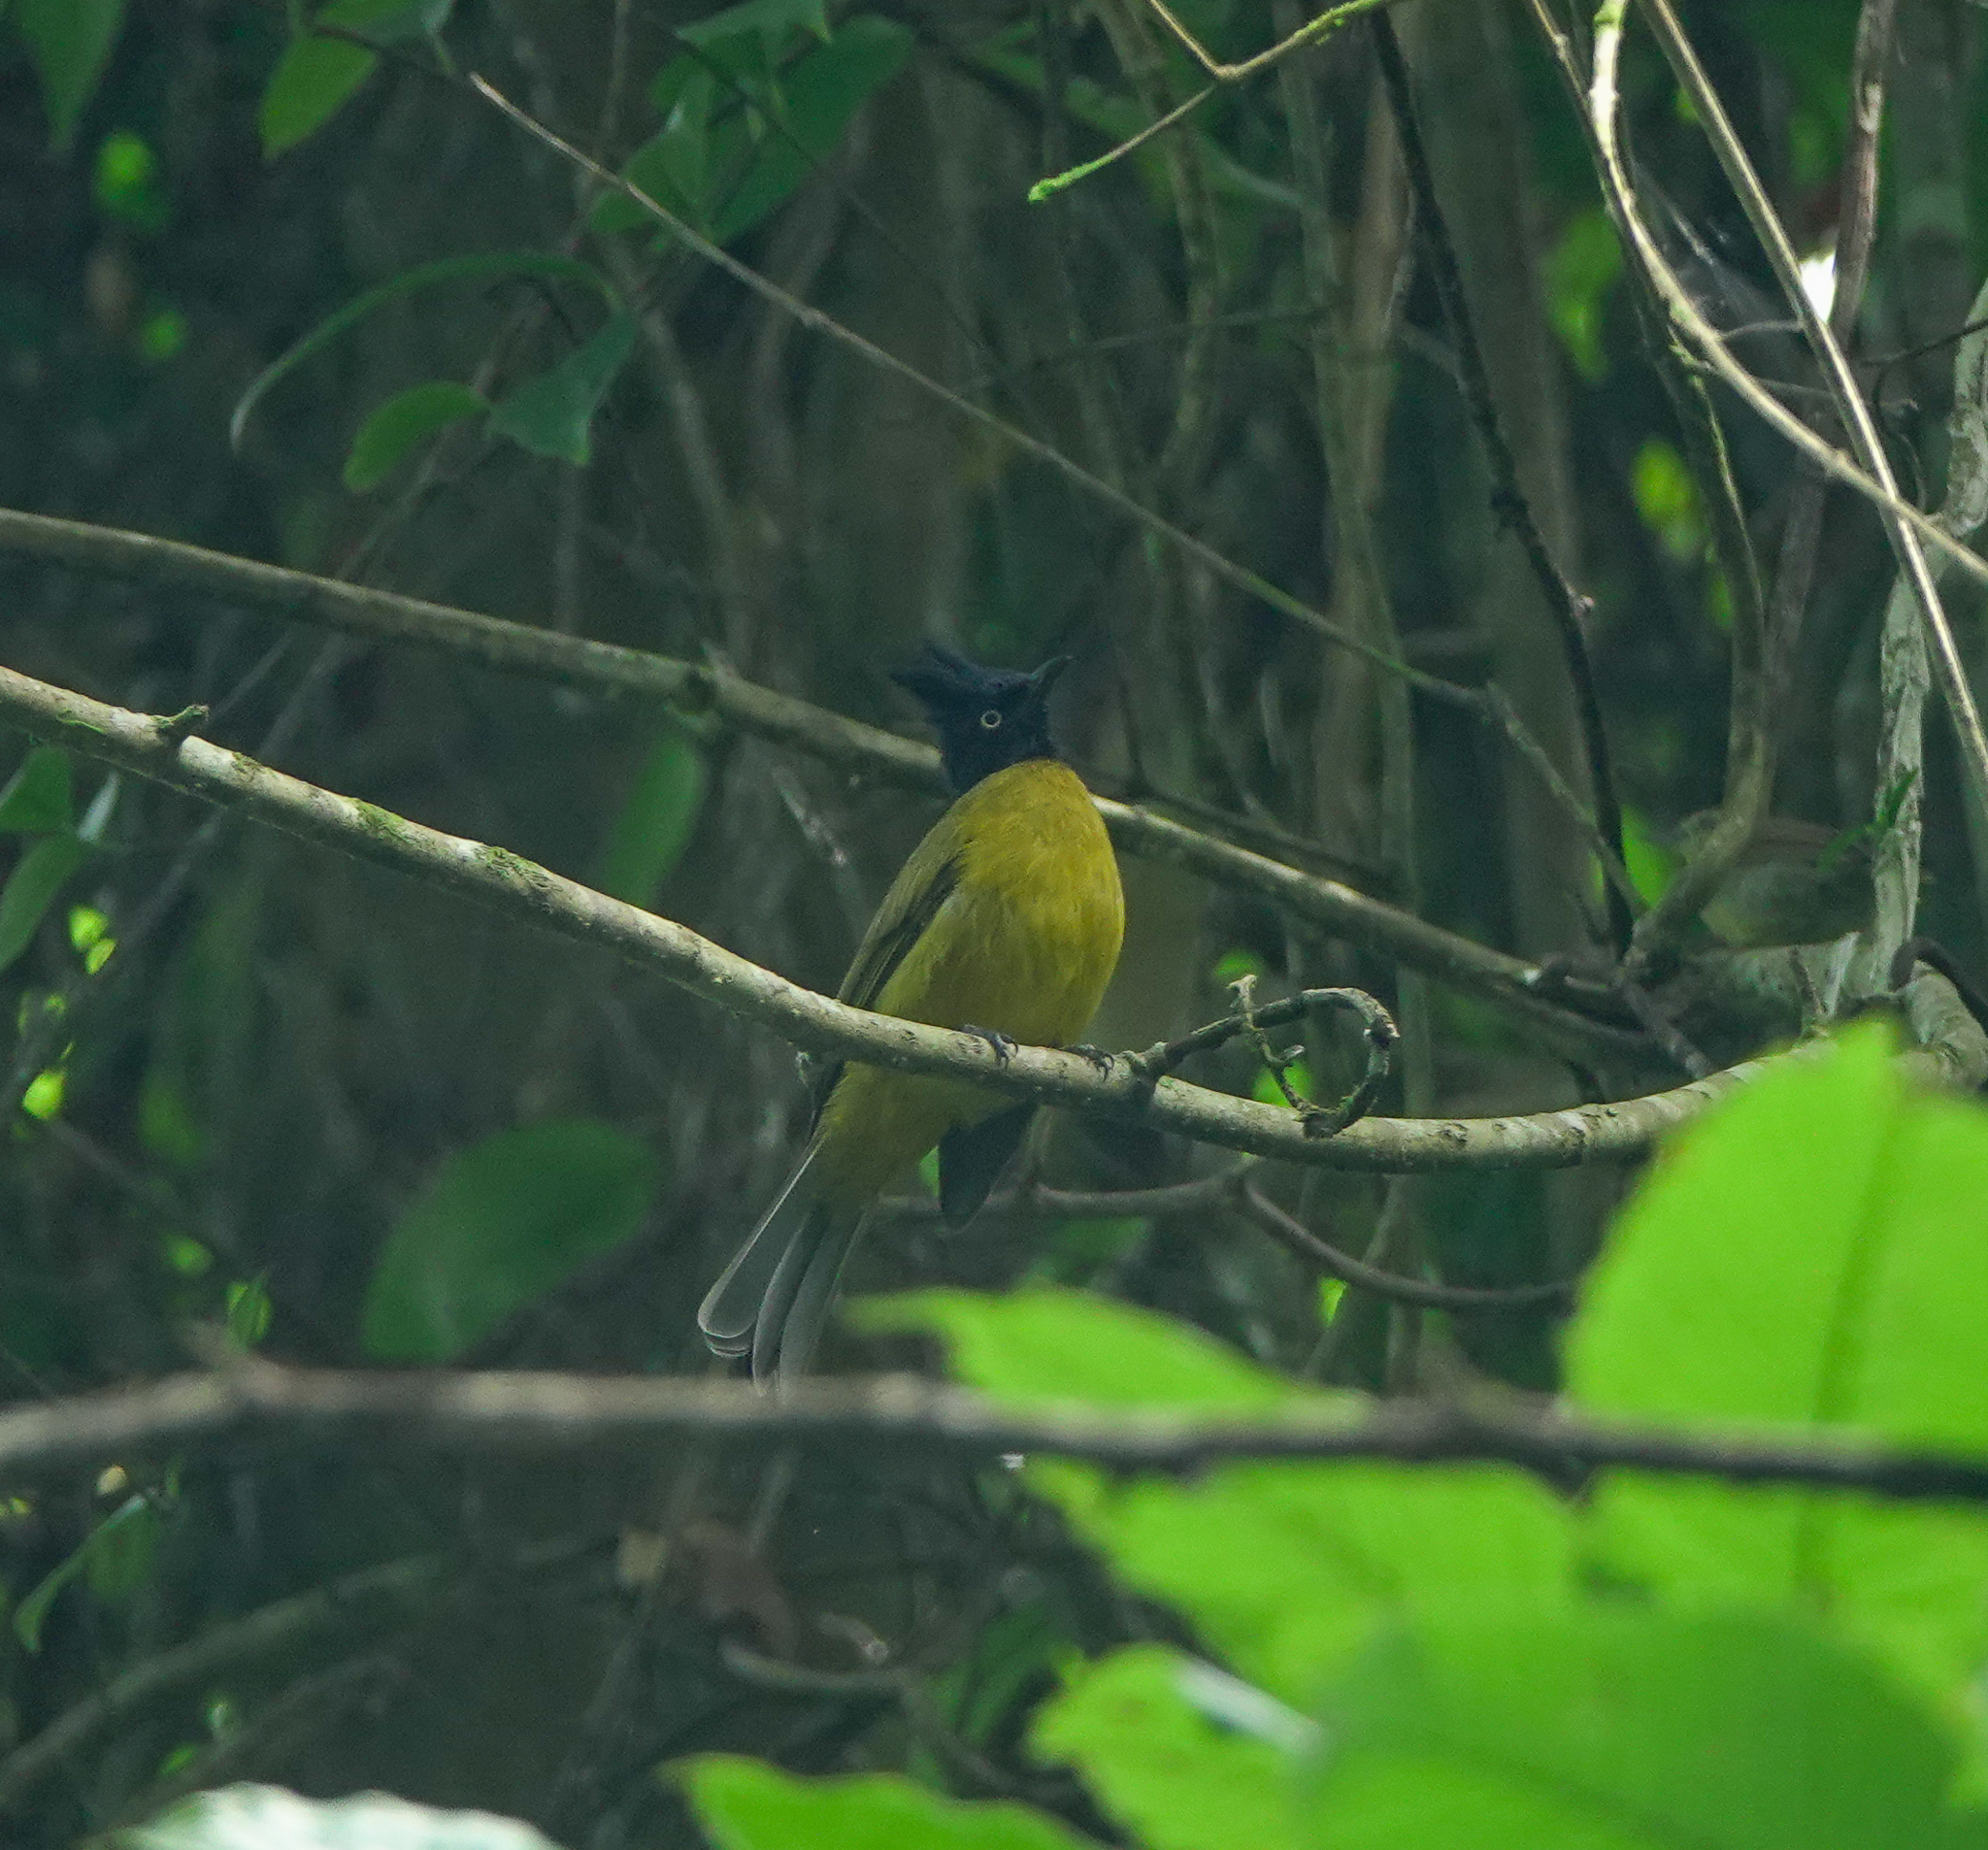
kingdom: Animalia
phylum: Chordata
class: Aves
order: Passeriformes
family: Pycnonotidae
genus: Pycnonotus
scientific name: Pycnonotus flaviventris
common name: Black-crested bulbul
